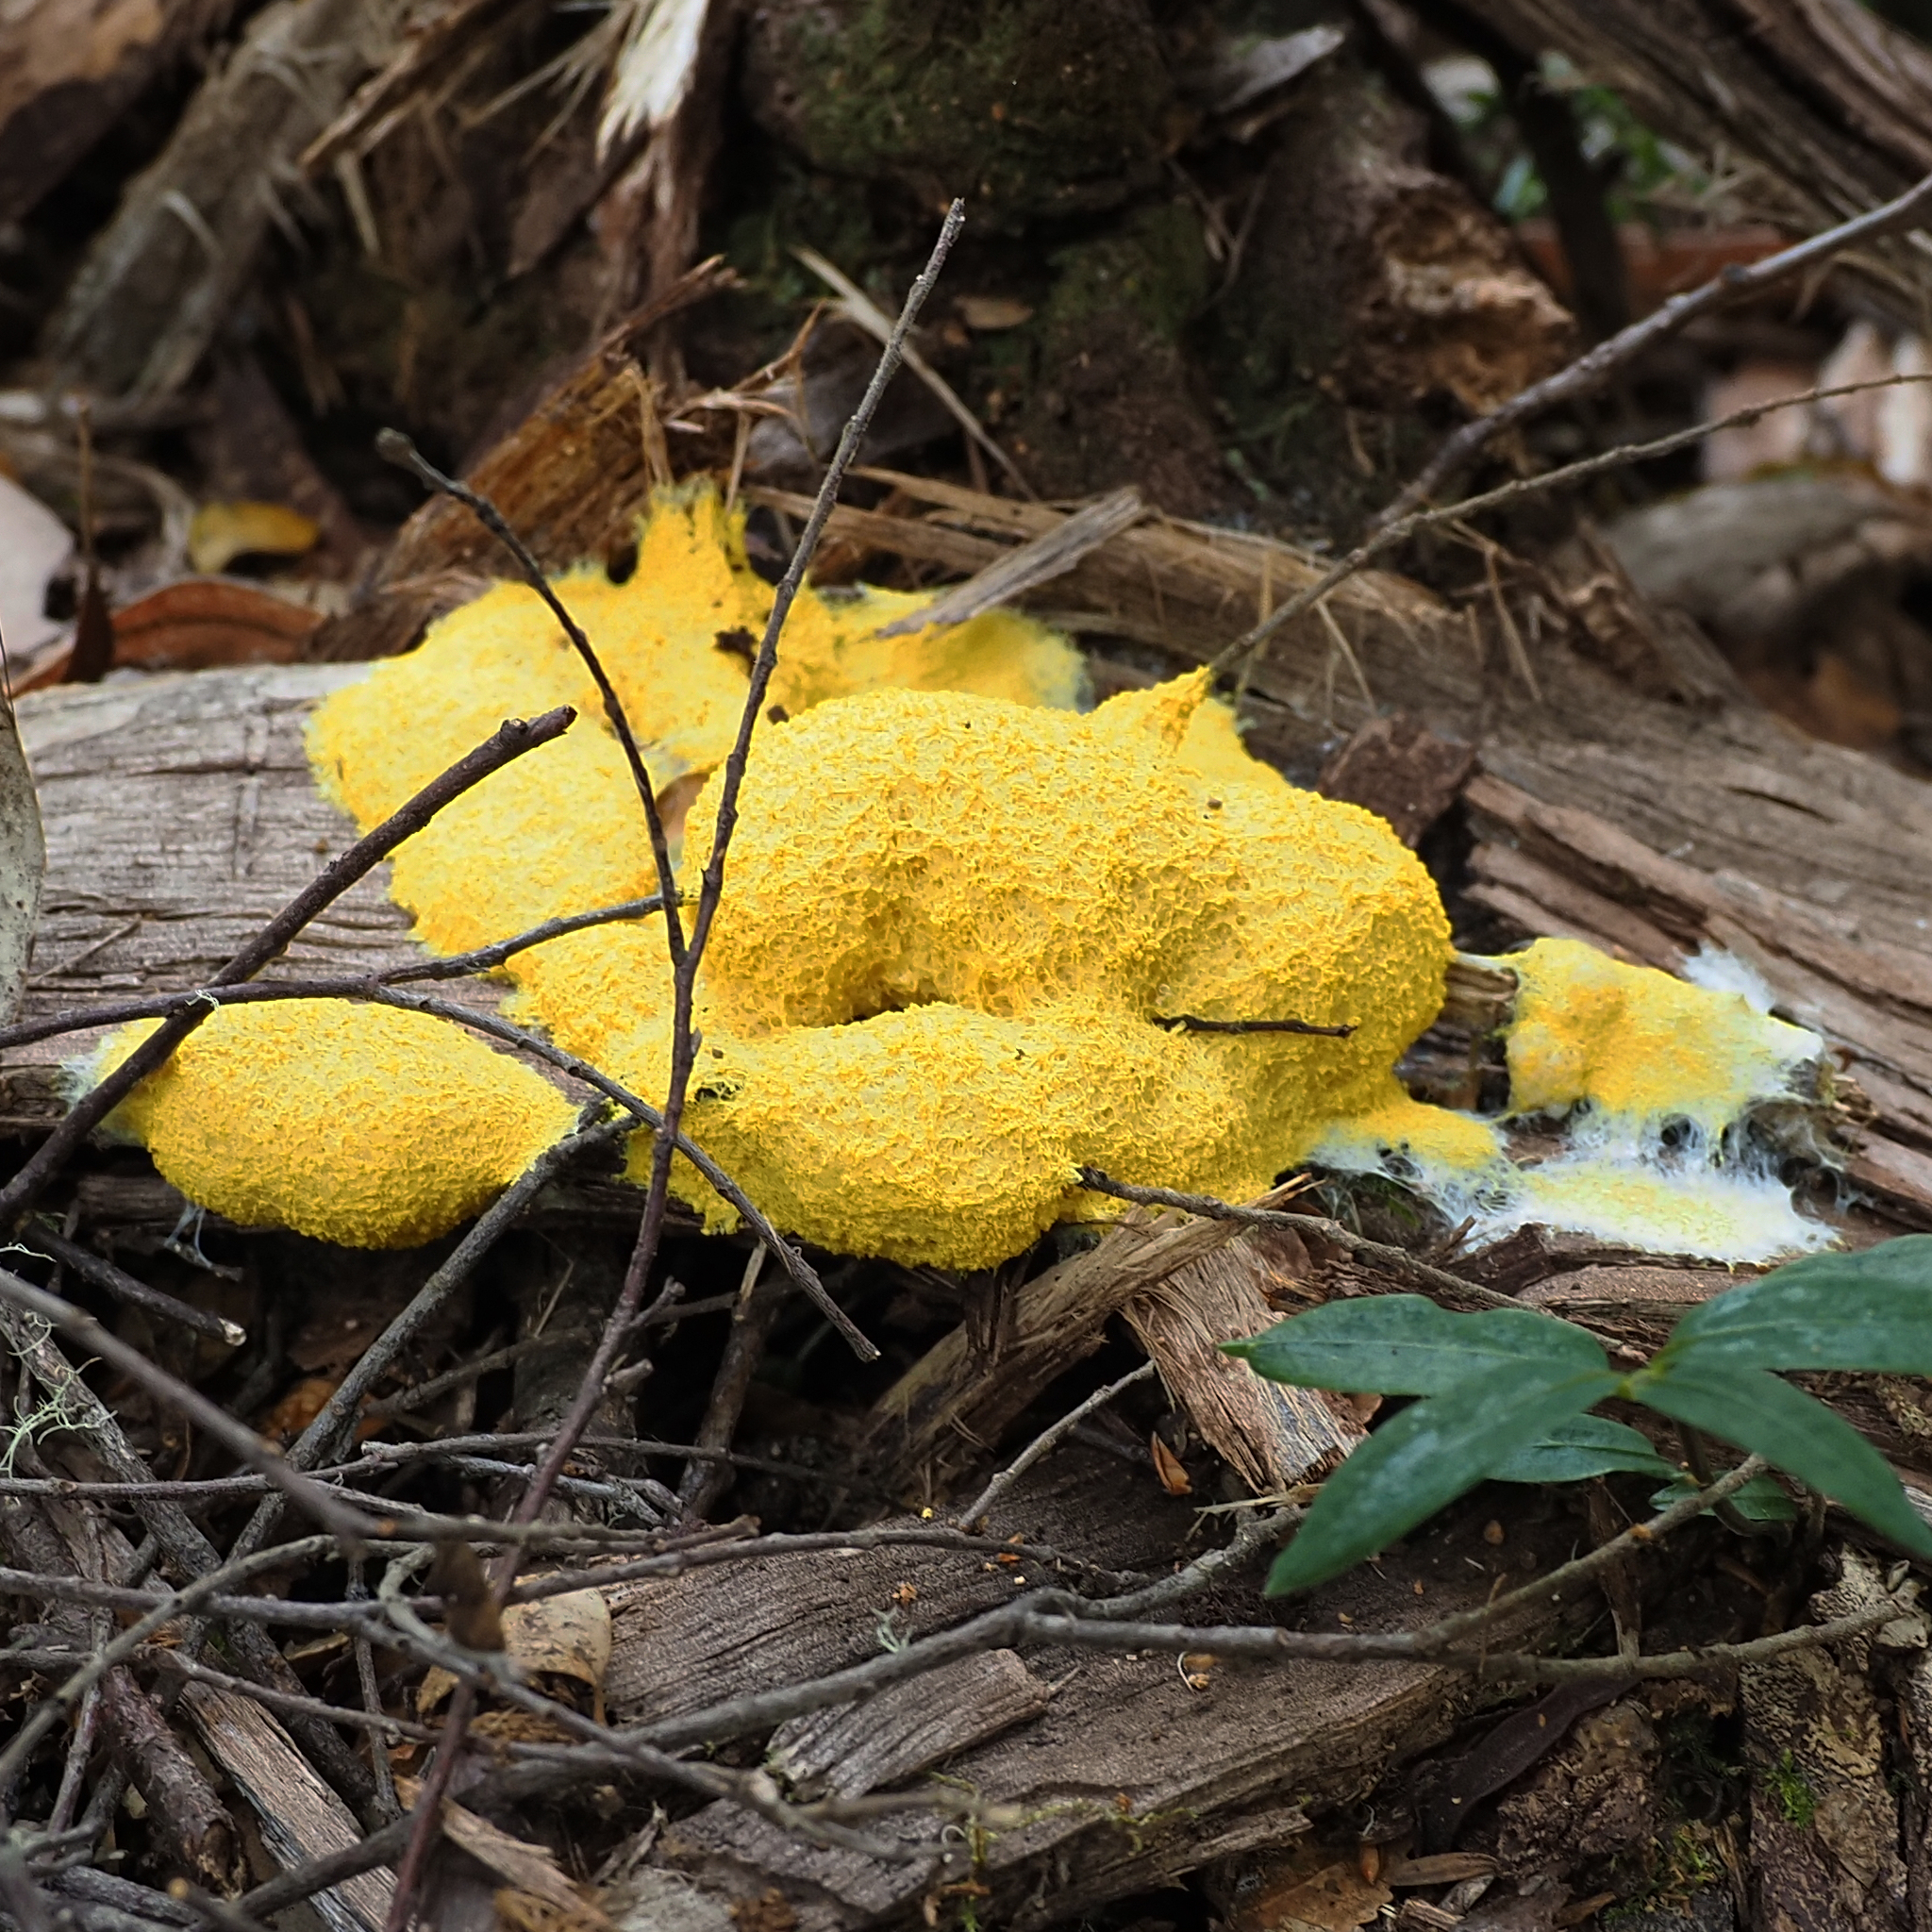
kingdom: Protozoa
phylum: Mycetozoa
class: Myxomycetes
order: Physarales
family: Physaraceae
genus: Fuligo
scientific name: Fuligo septica
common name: Dog vomit slime mold
